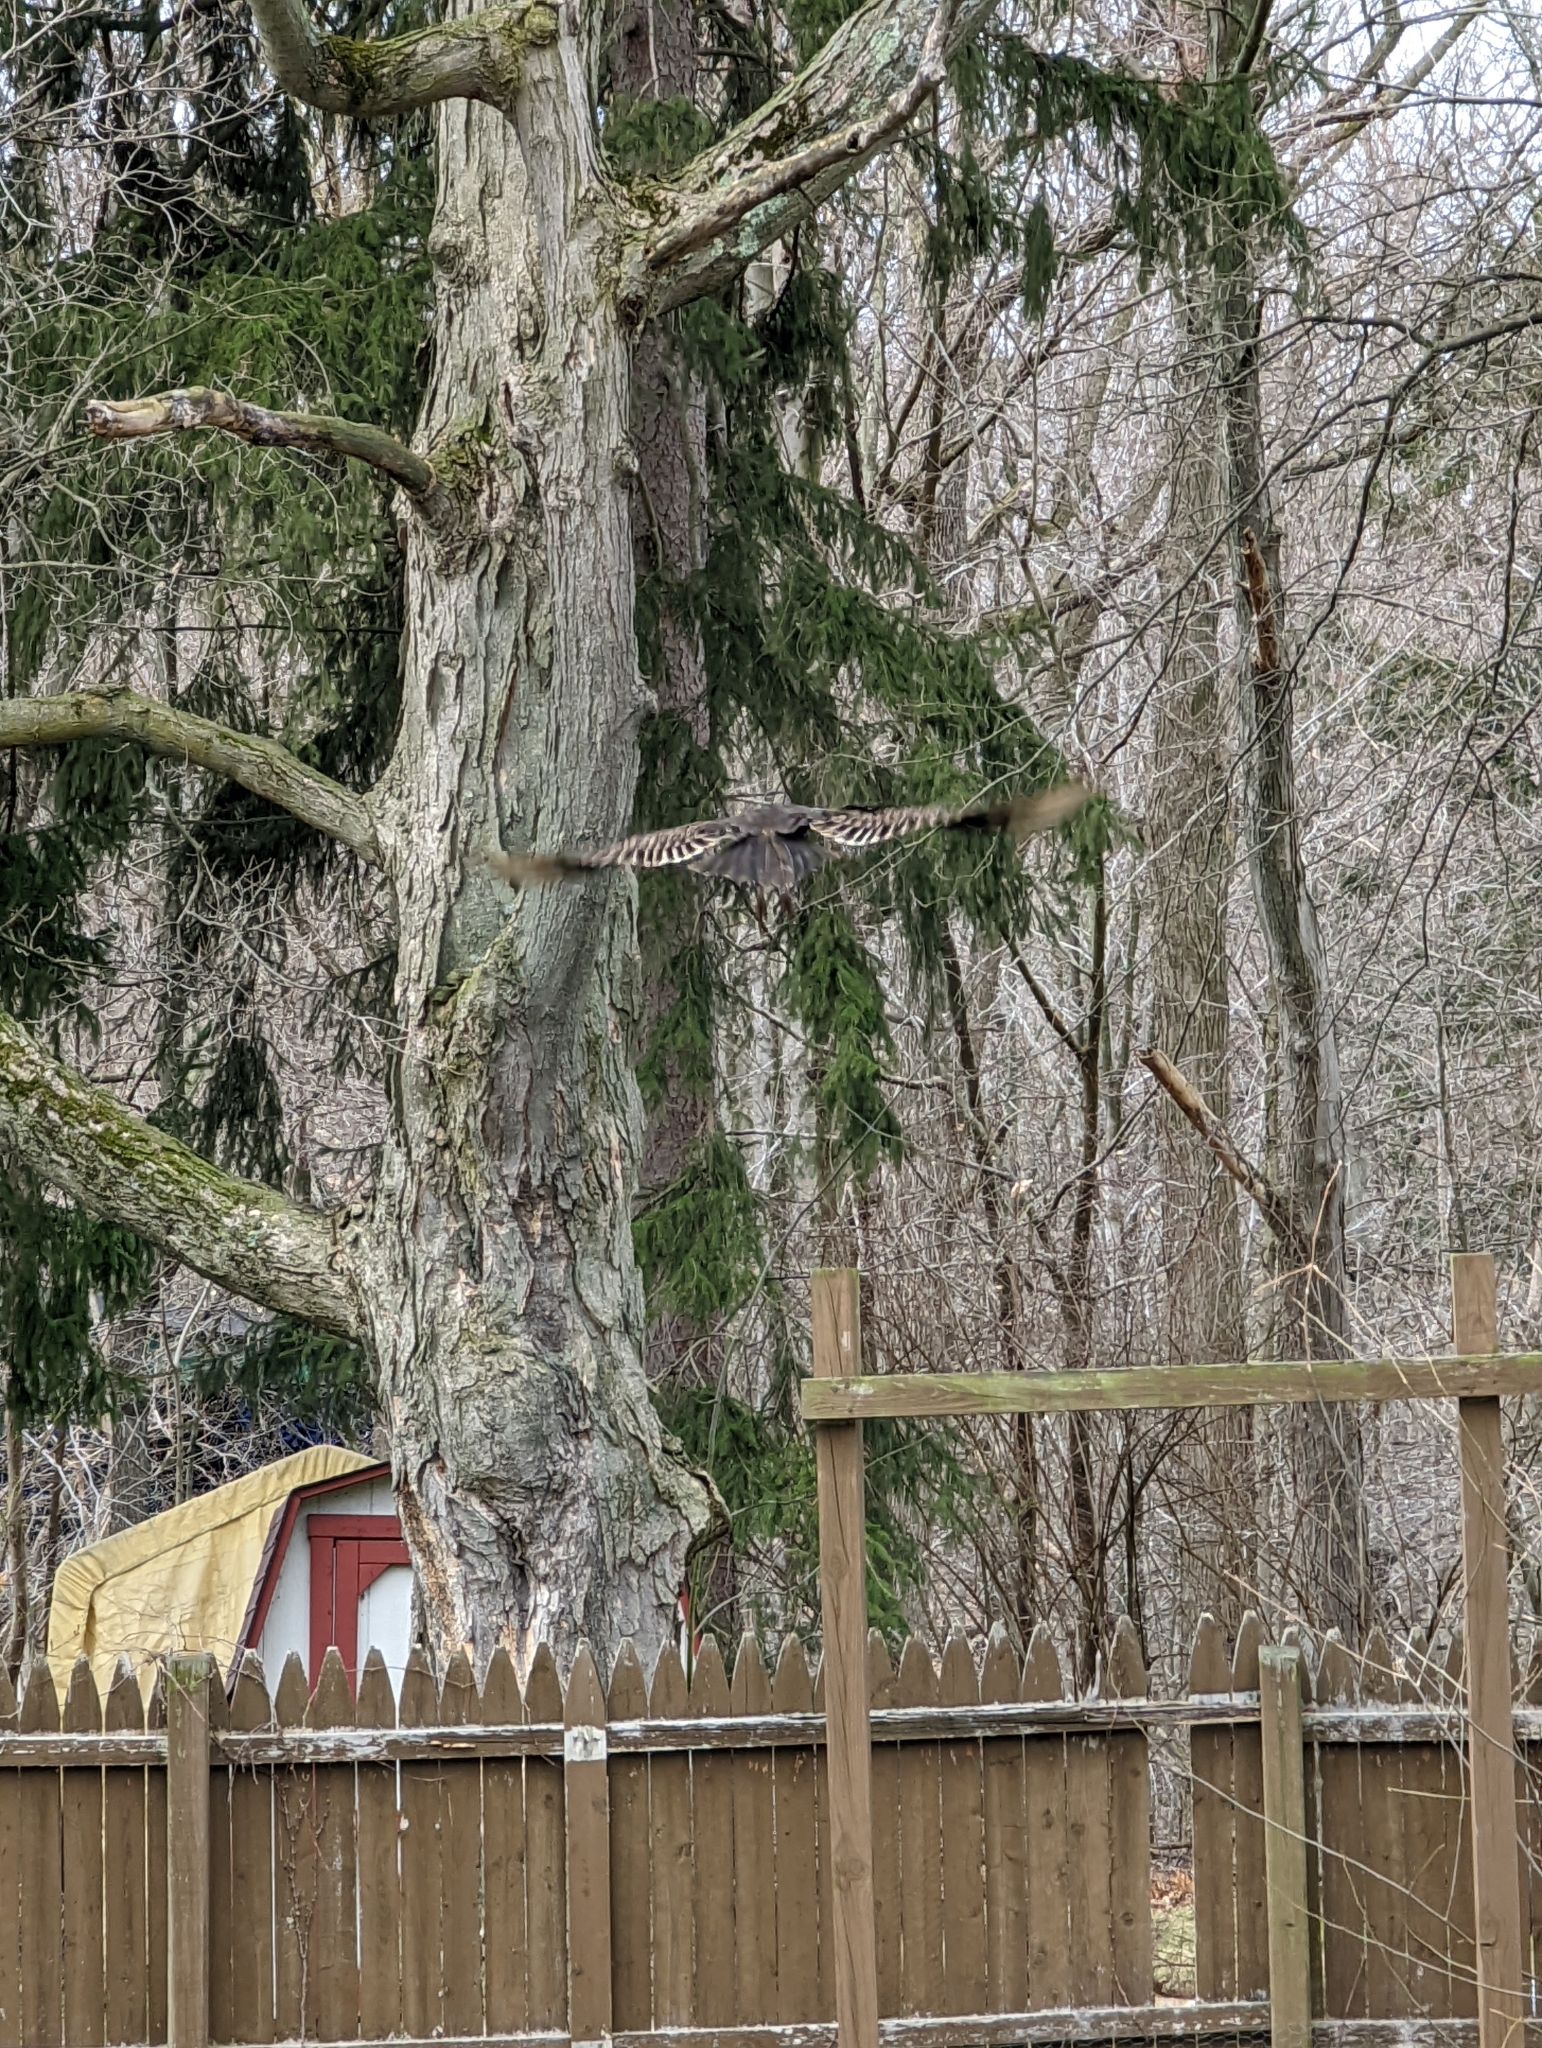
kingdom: Animalia
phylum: Chordata
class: Aves
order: Accipitriformes
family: Cathartidae
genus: Cathartes
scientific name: Cathartes aura
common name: Turkey vulture
